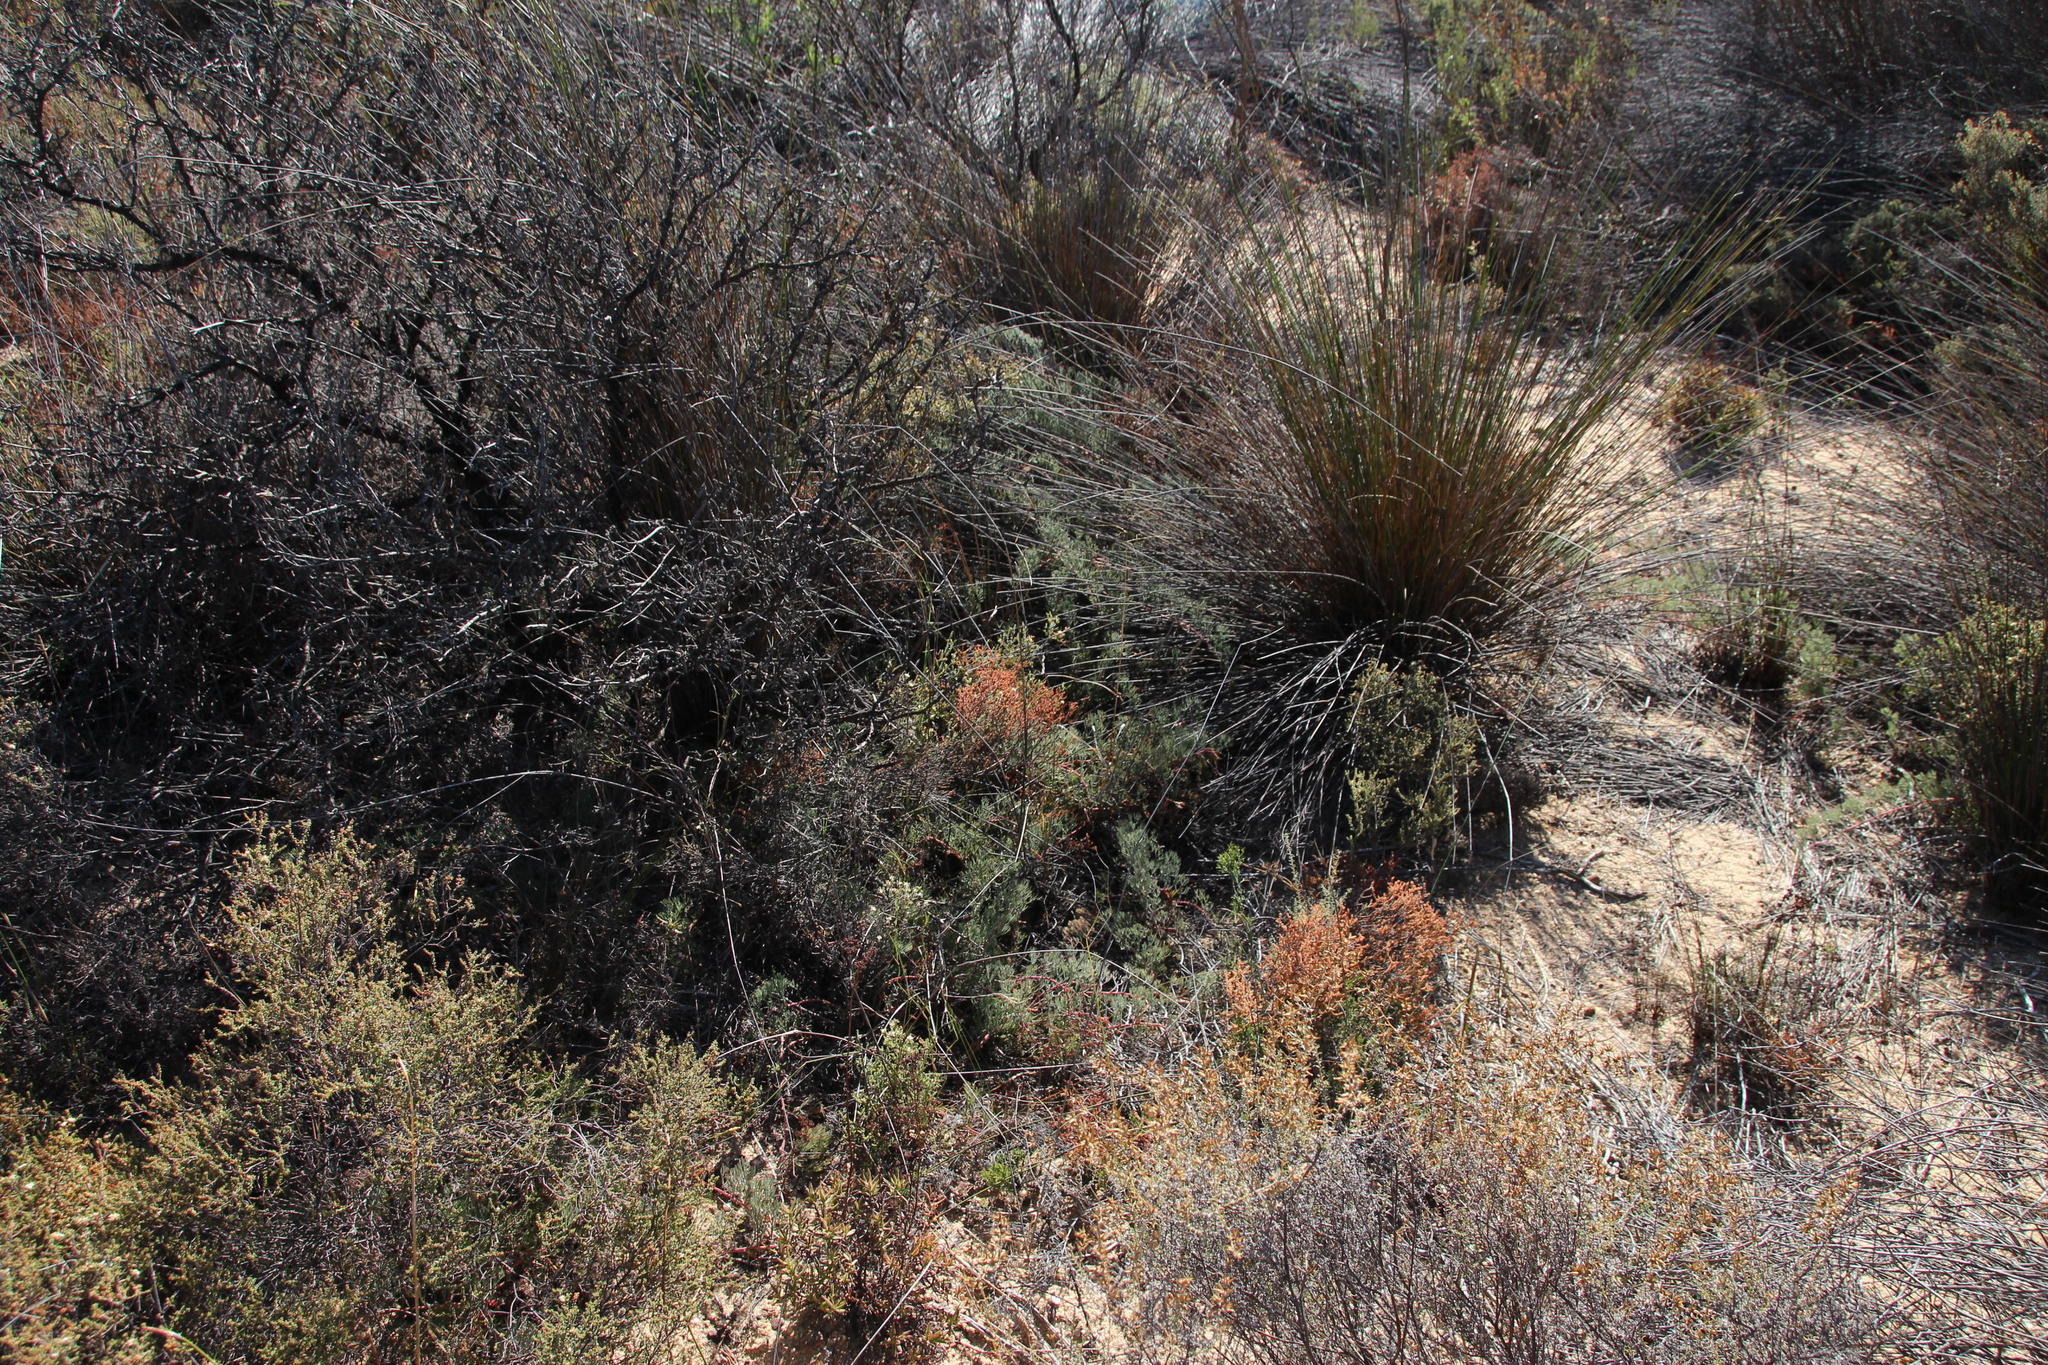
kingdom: Plantae
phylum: Tracheophyta
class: Magnoliopsida
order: Proteales
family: Proteaceae
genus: Serruria
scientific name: Serruria effusa
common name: Candelabra spiderhead
